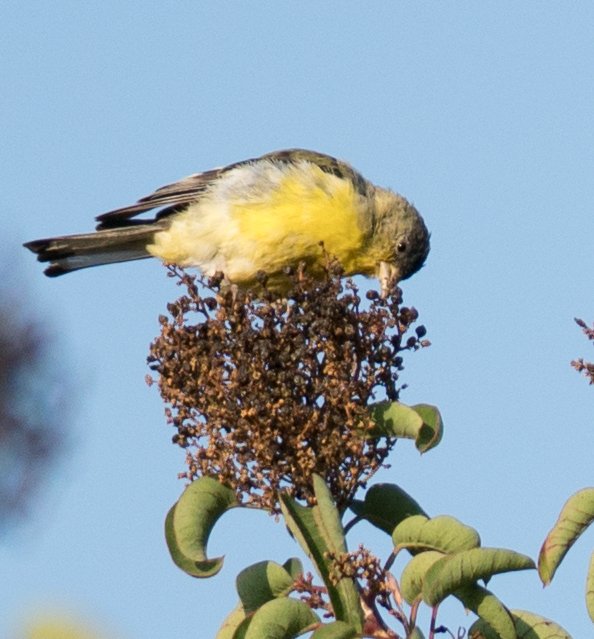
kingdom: Animalia
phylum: Chordata
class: Aves
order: Passeriformes
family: Fringillidae
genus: Spinus
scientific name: Spinus psaltria
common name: Lesser goldfinch
